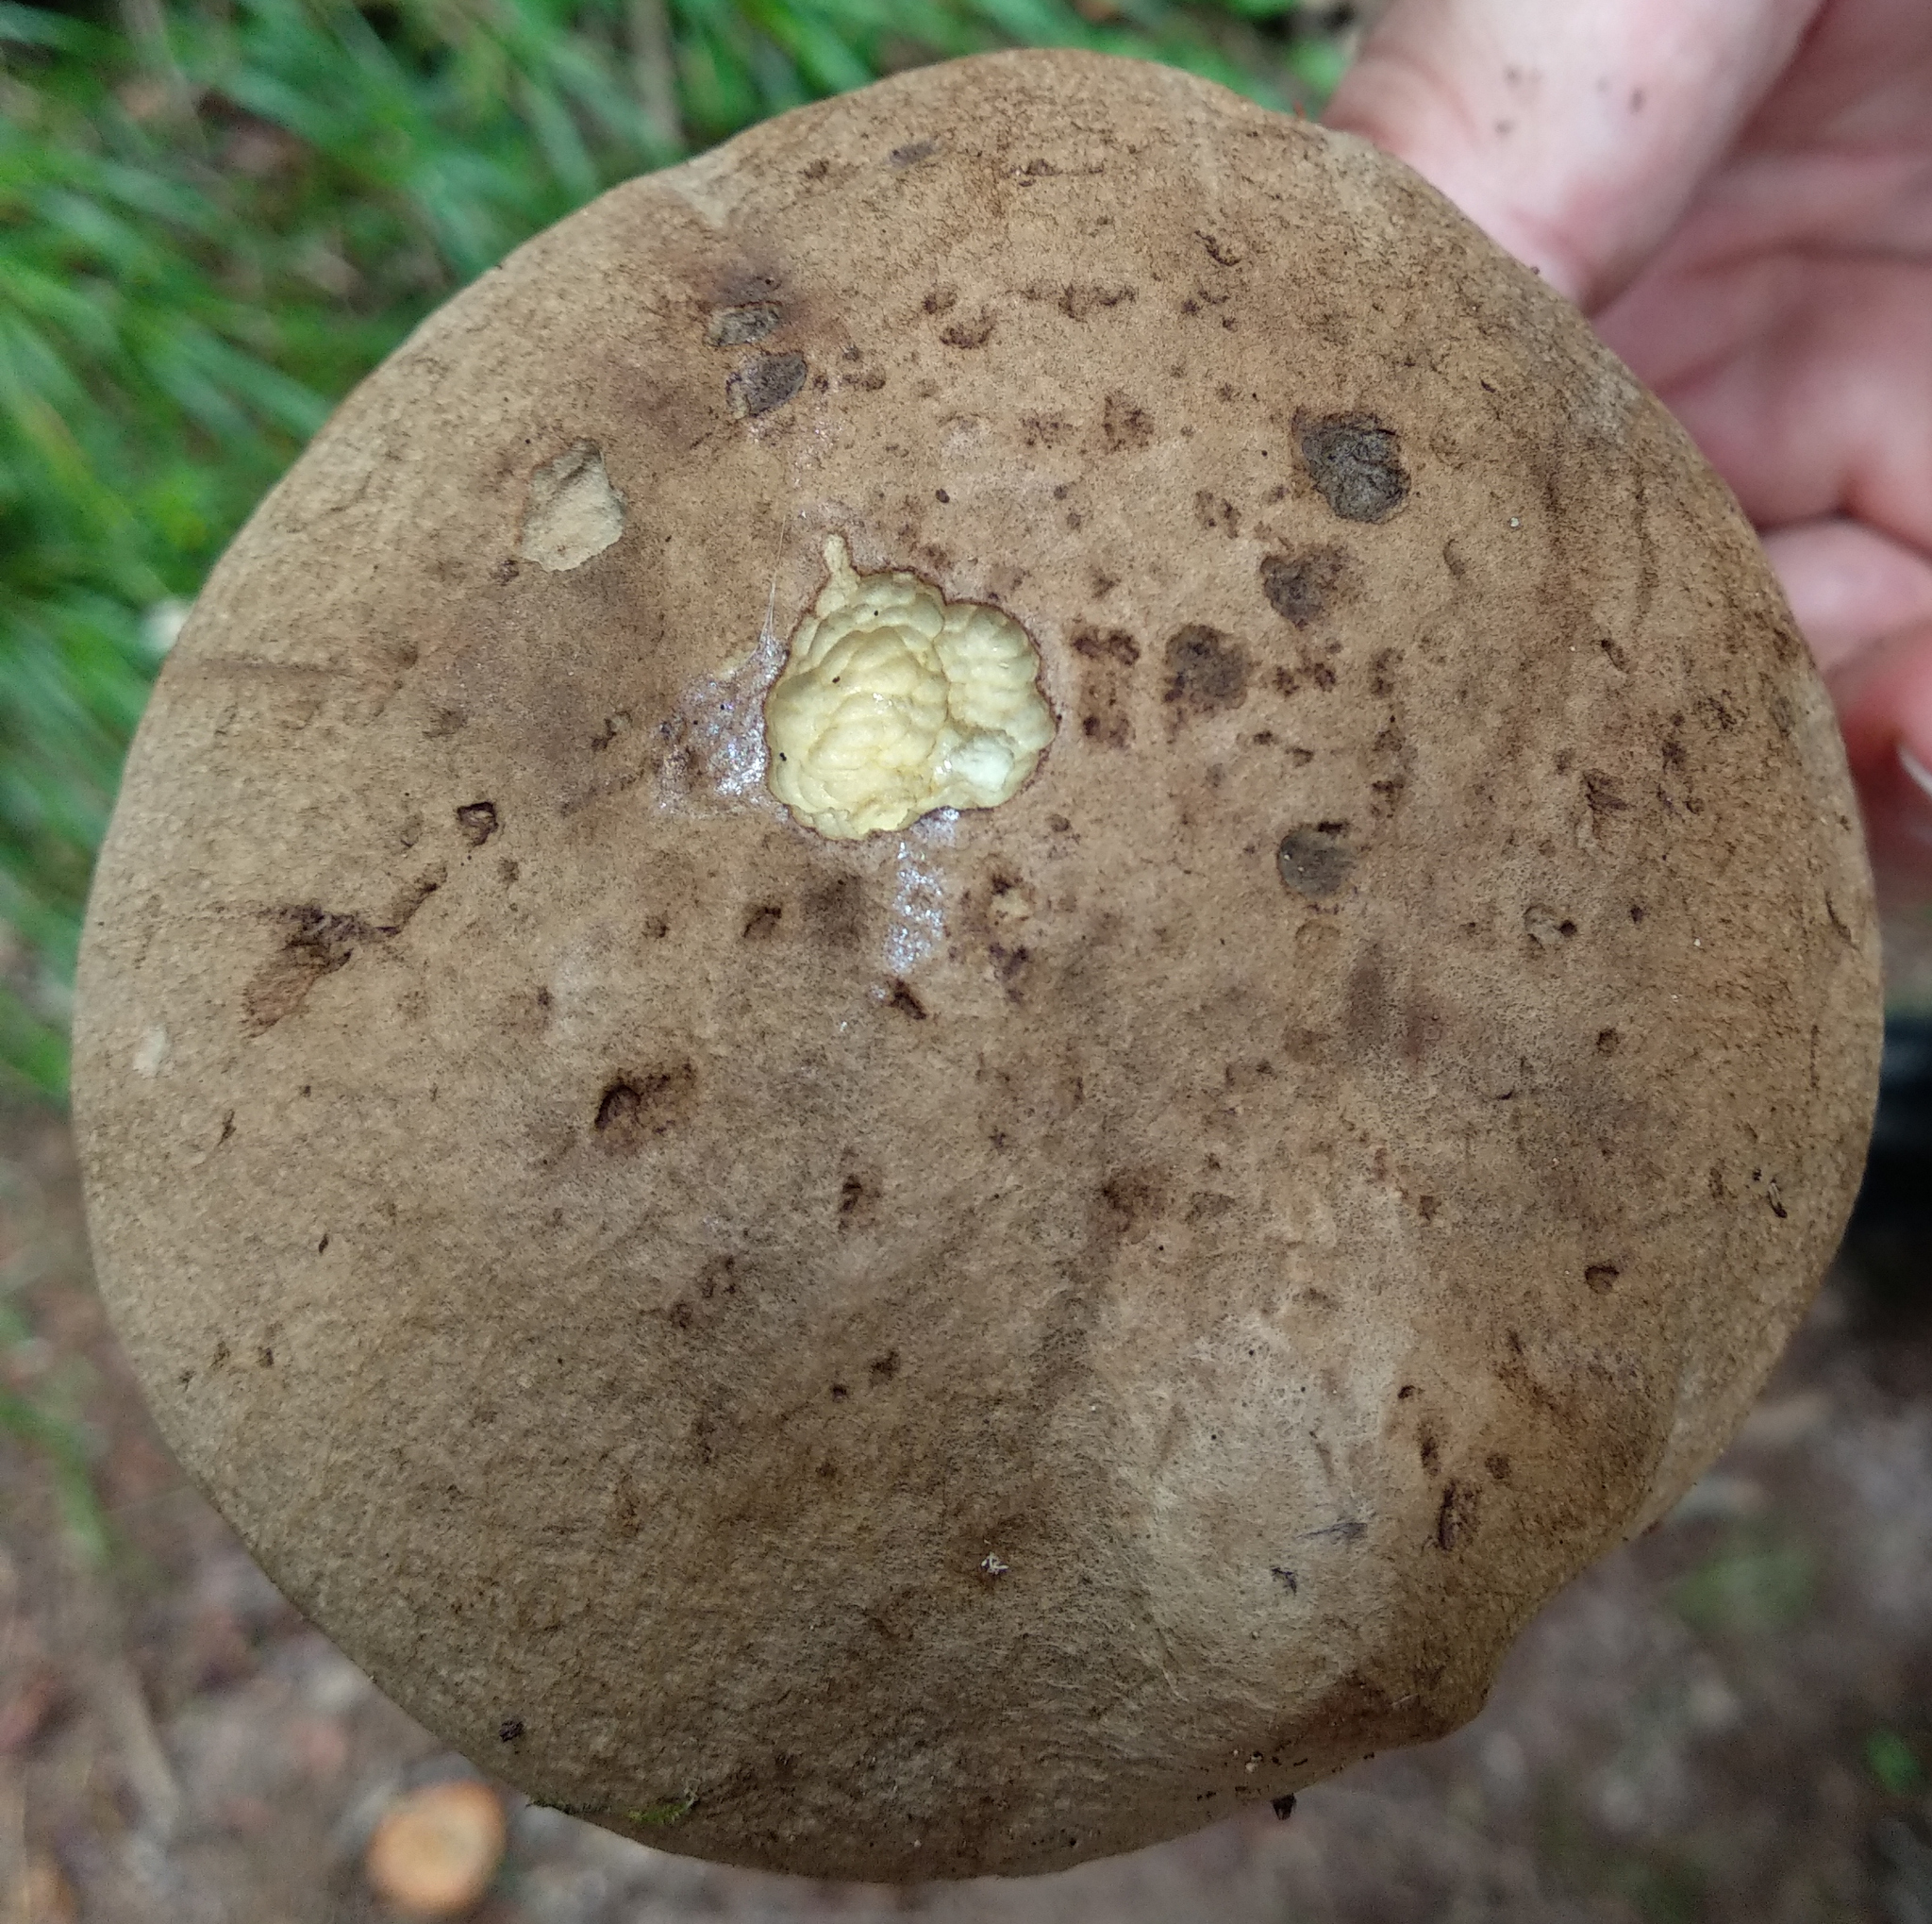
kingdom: Fungi
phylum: Basidiomycota
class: Agaricomycetes
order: Boletales
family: Boletaceae
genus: Caloboletus
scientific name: Caloboletus calopus
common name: Bitter beech bolete
